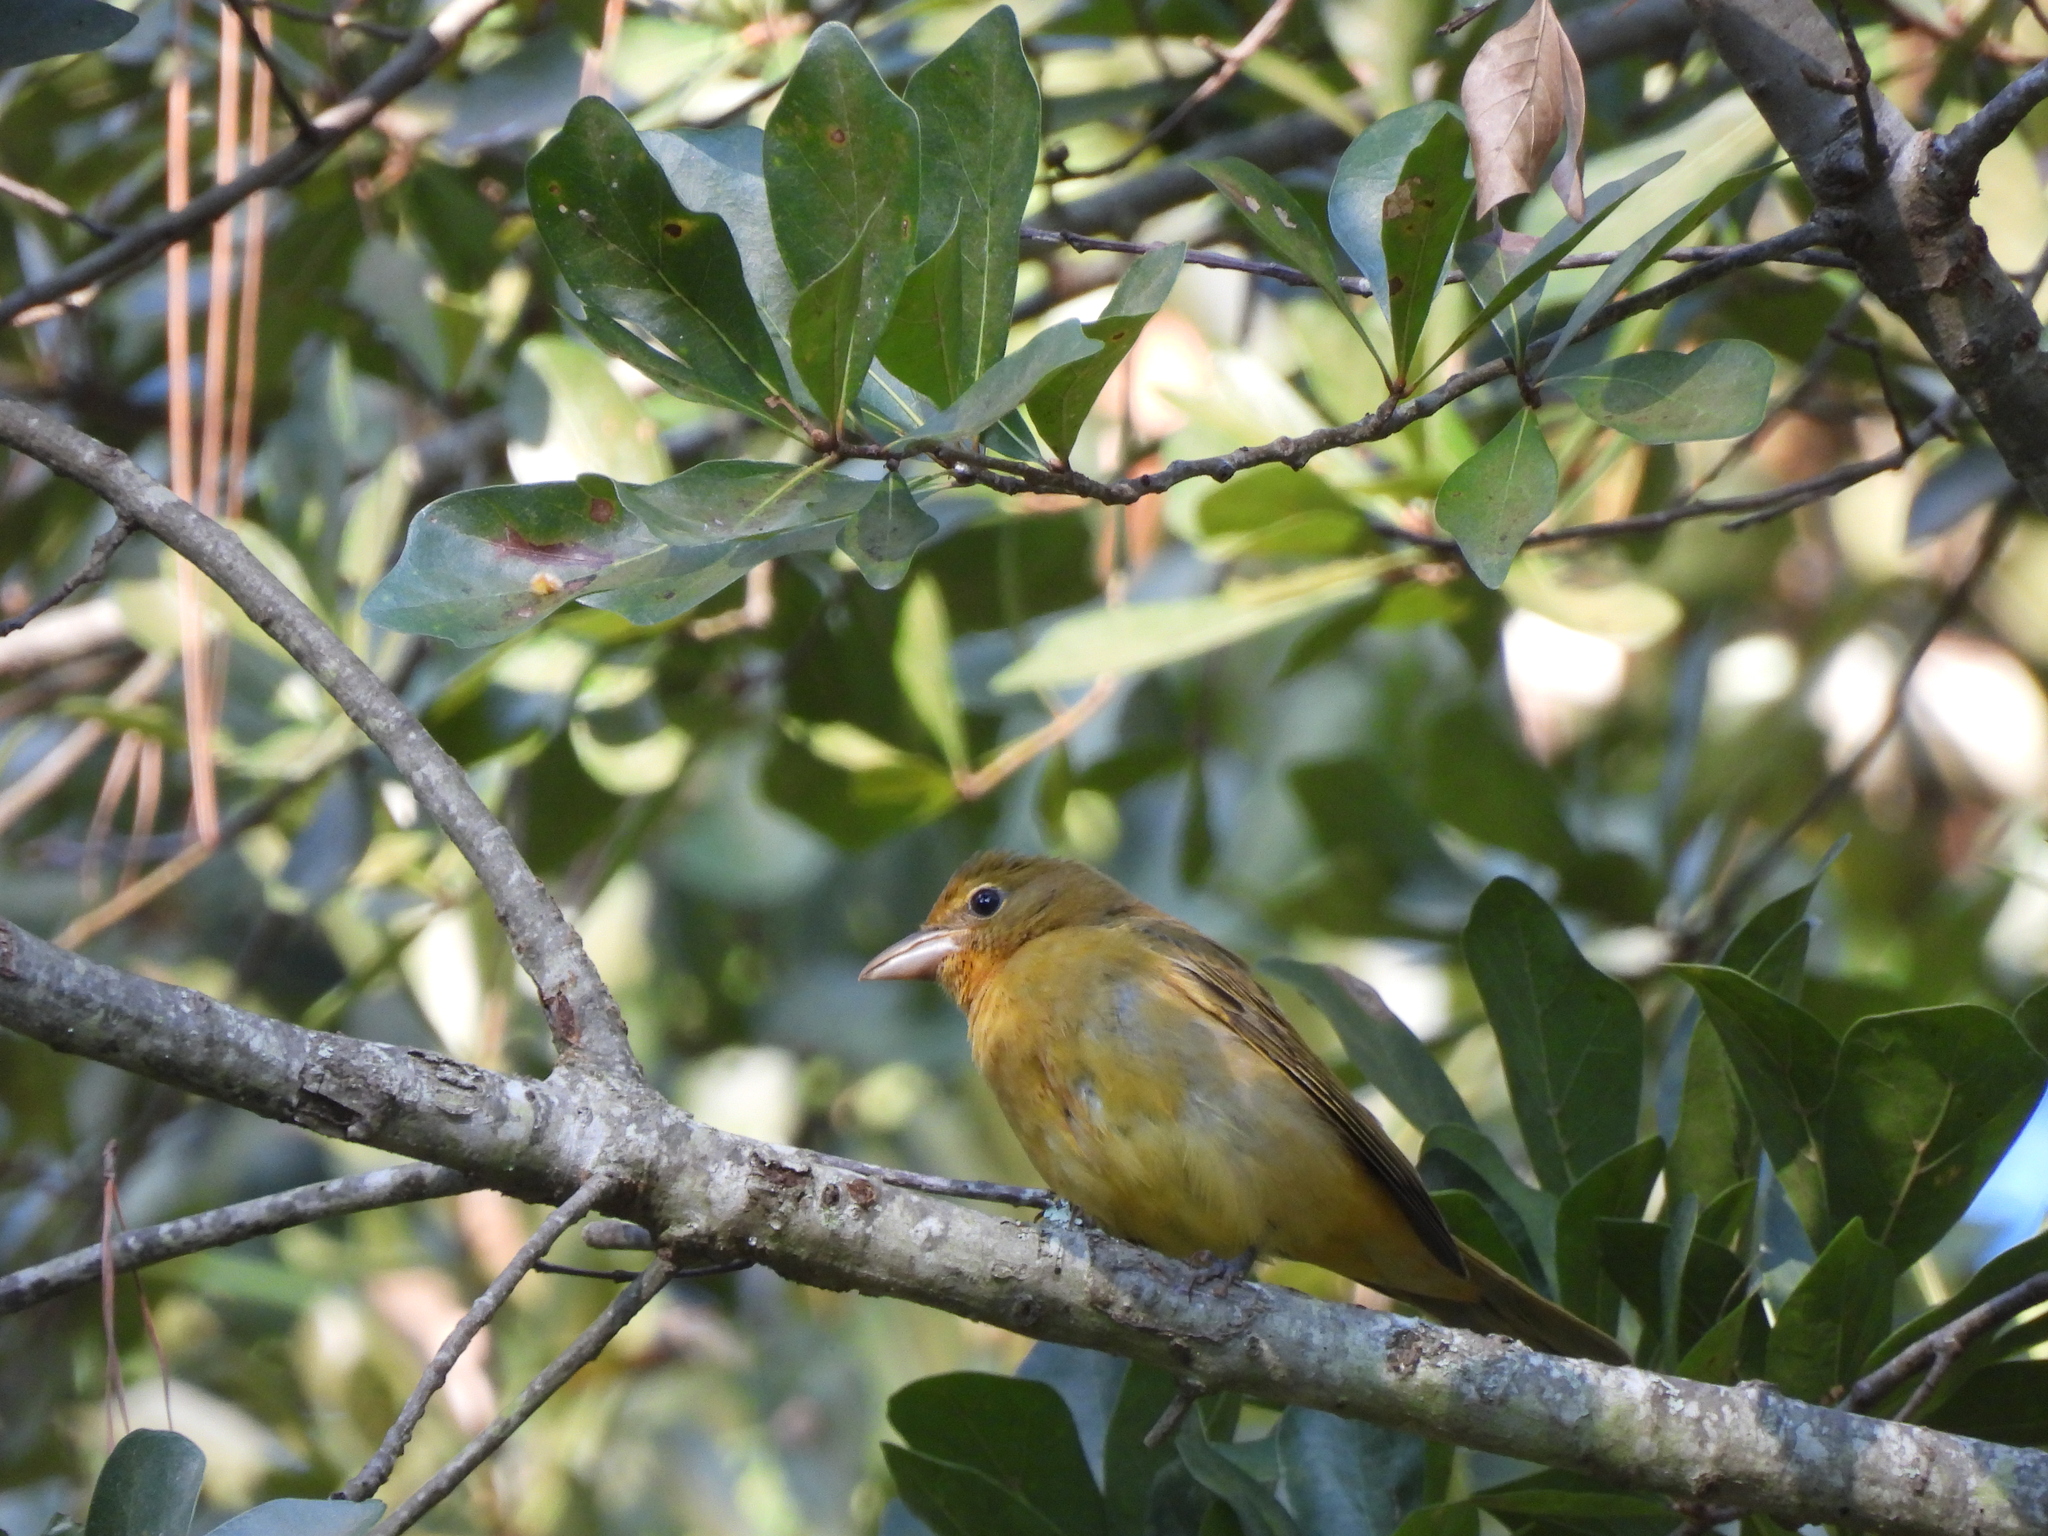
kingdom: Animalia
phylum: Chordata
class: Aves
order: Passeriformes
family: Cardinalidae
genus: Piranga
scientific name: Piranga rubra
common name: Summer tanager
